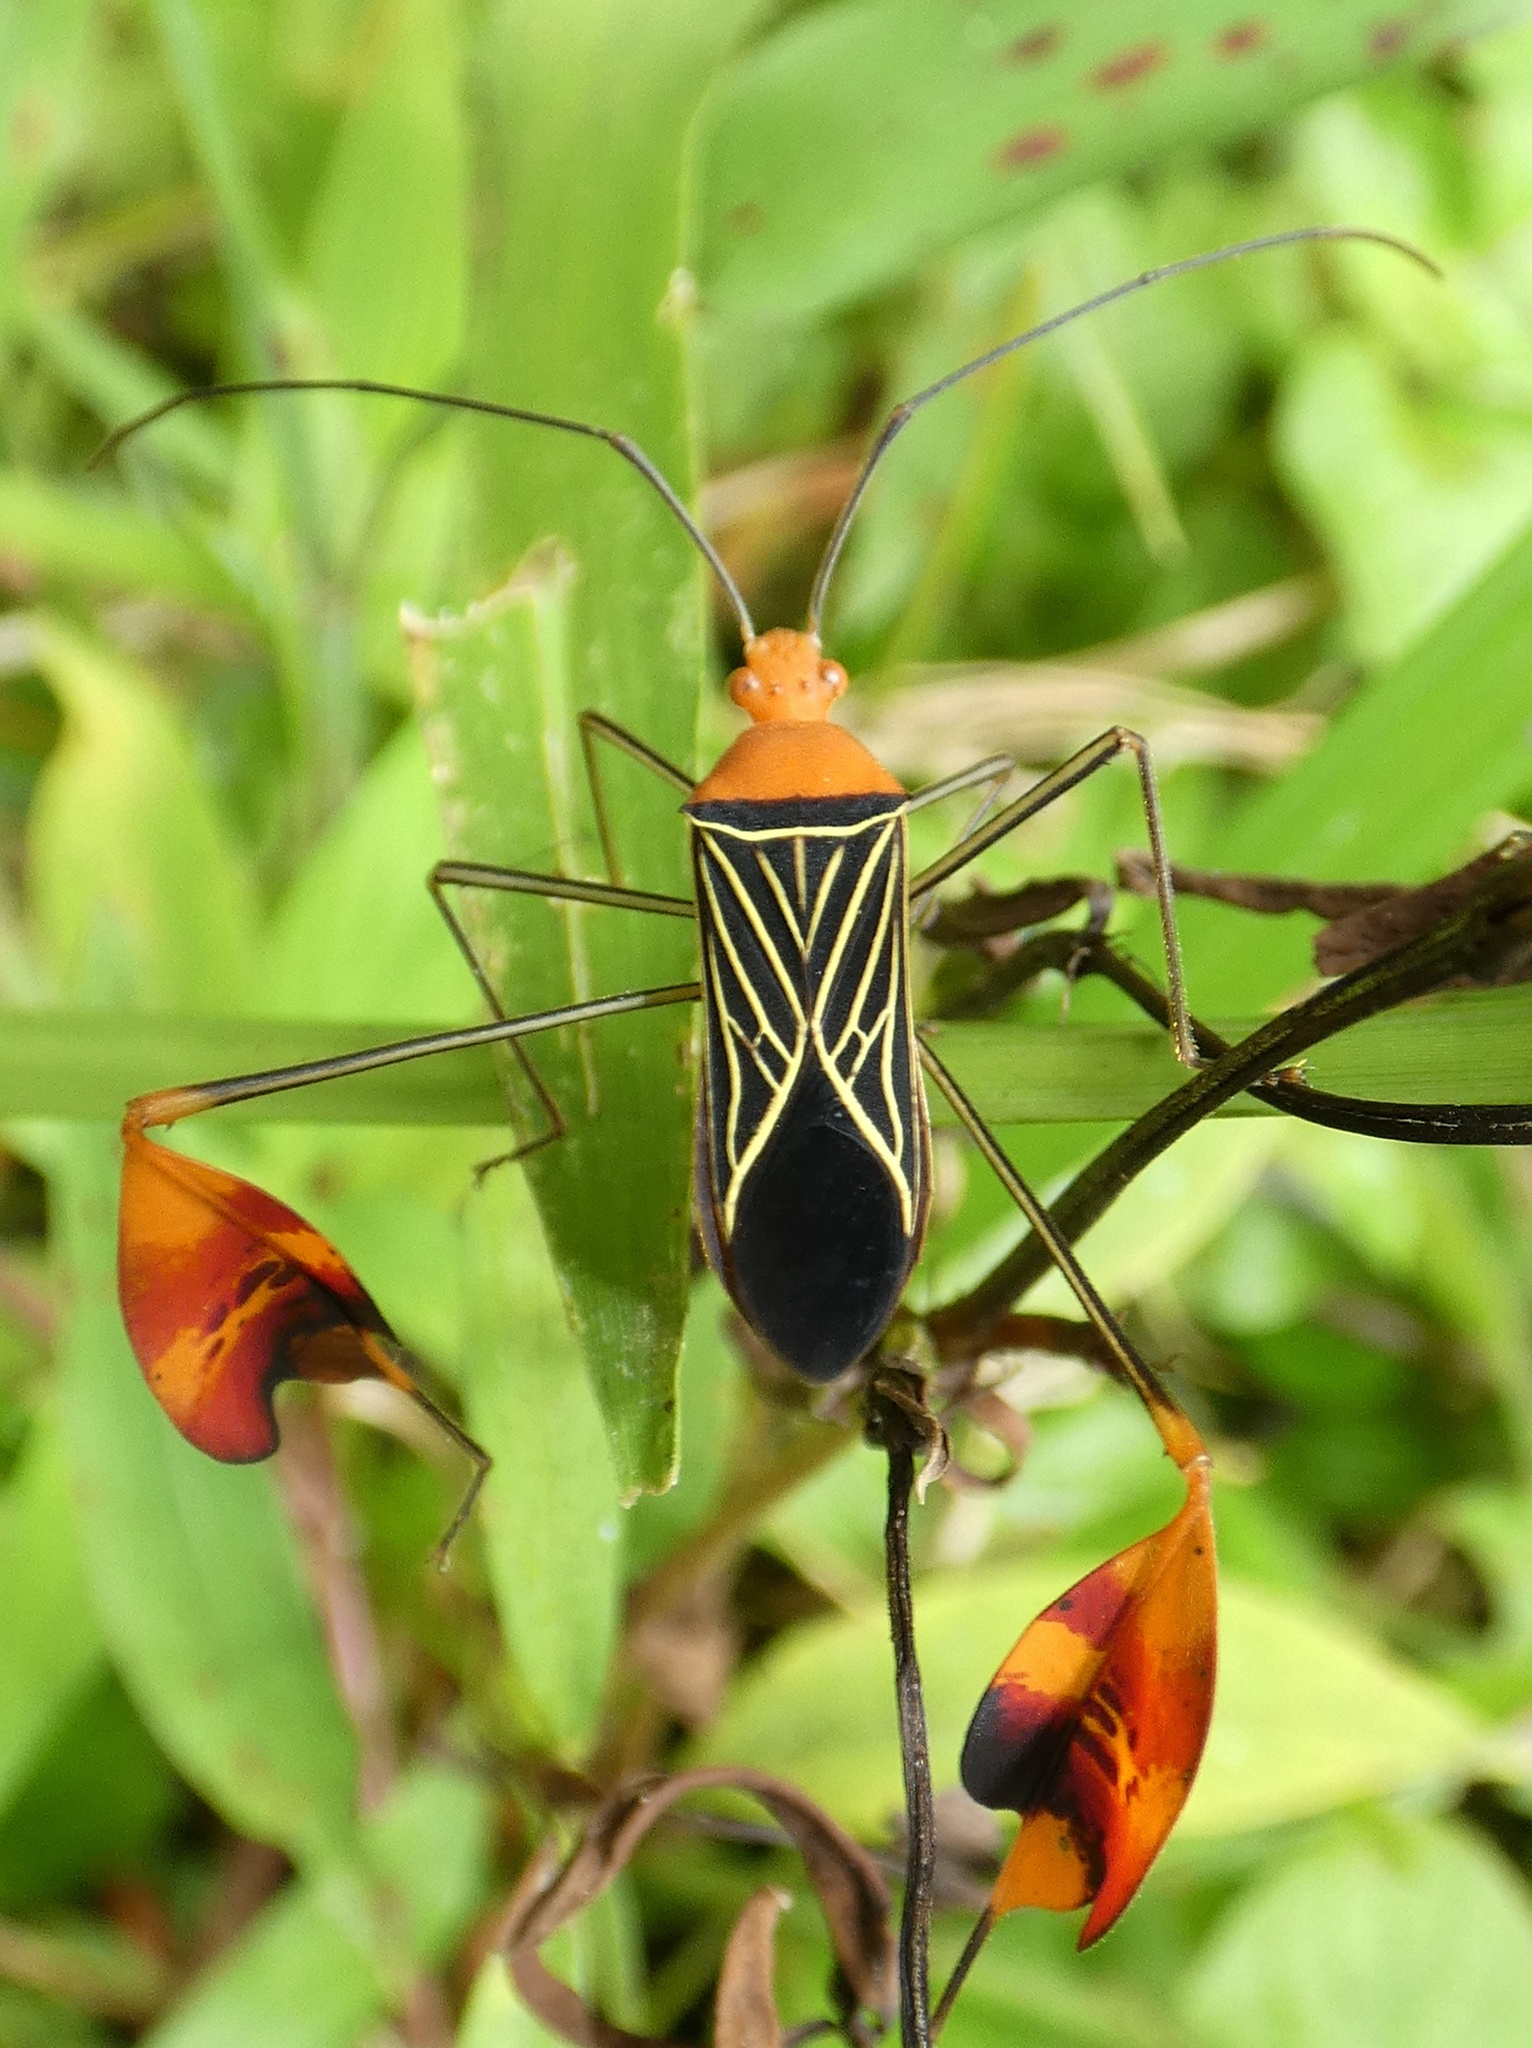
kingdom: Animalia
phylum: Arthropoda
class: Insecta
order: Hemiptera
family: Coreidae
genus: Bitta
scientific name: Bitta
